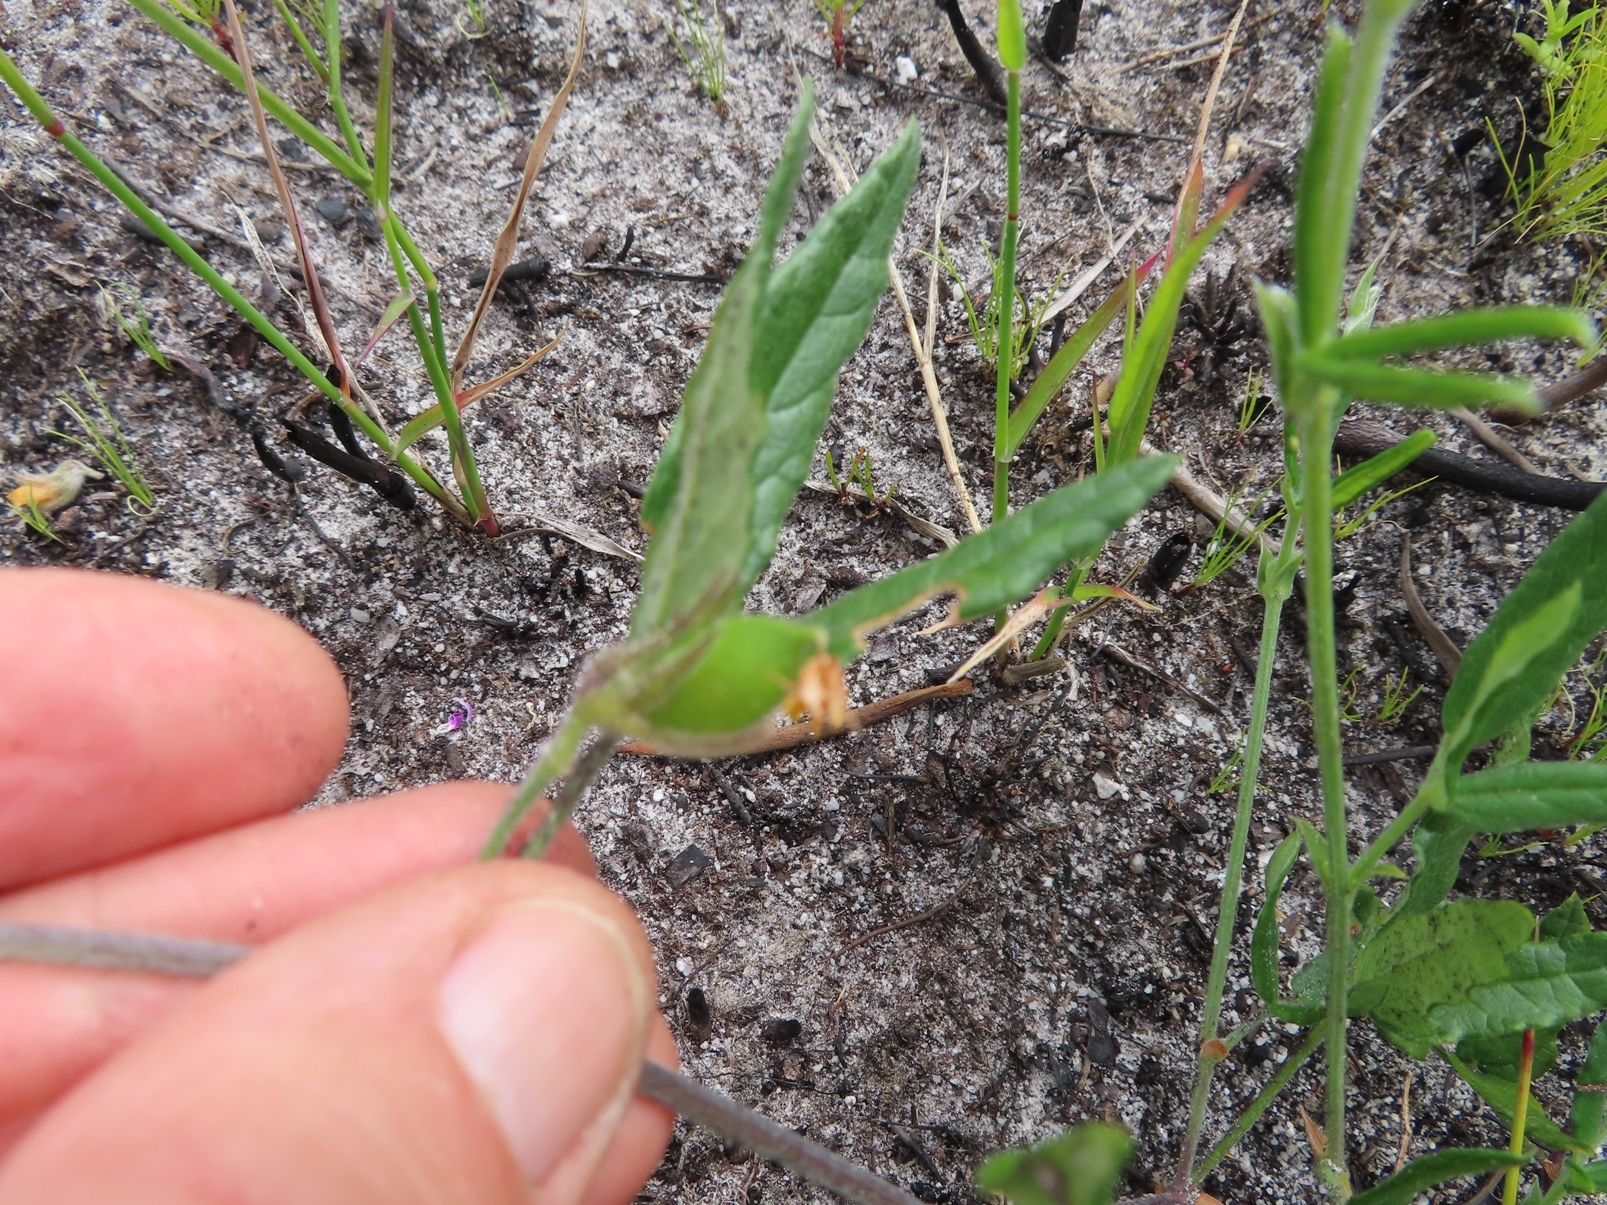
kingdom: Plantae
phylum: Tracheophyta
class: Magnoliopsida
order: Fabales
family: Fabaceae
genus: Rhynchosia
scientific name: Rhynchosia leucoscias
